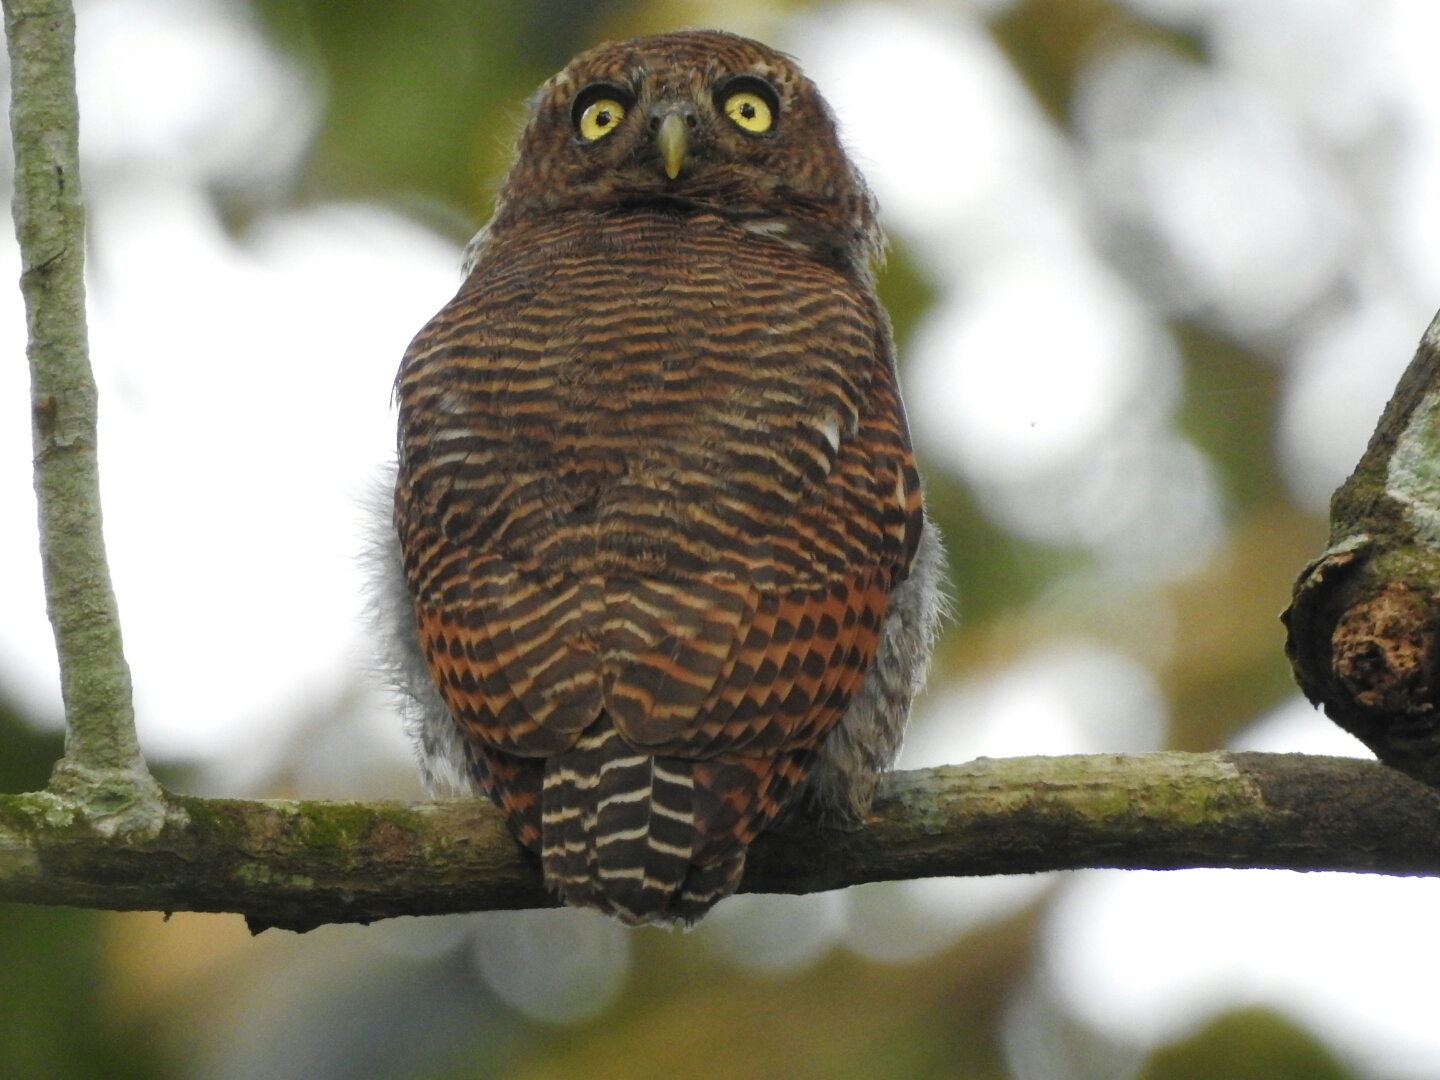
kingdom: Animalia
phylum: Chordata
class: Aves
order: Strigiformes
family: Strigidae
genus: Glaucidium
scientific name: Glaucidium radiatum
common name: Jungle owlet
